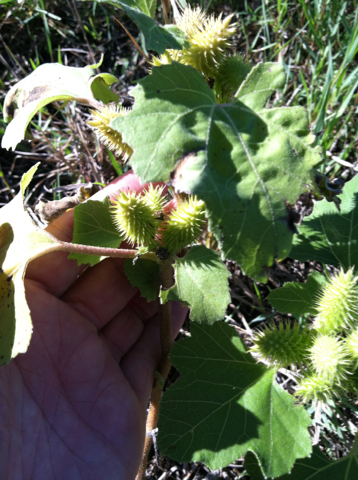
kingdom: Plantae
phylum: Tracheophyta
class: Magnoliopsida
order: Asterales
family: Asteraceae
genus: Xanthium
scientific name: Xanthium strumarium
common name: Rough cocklebur
